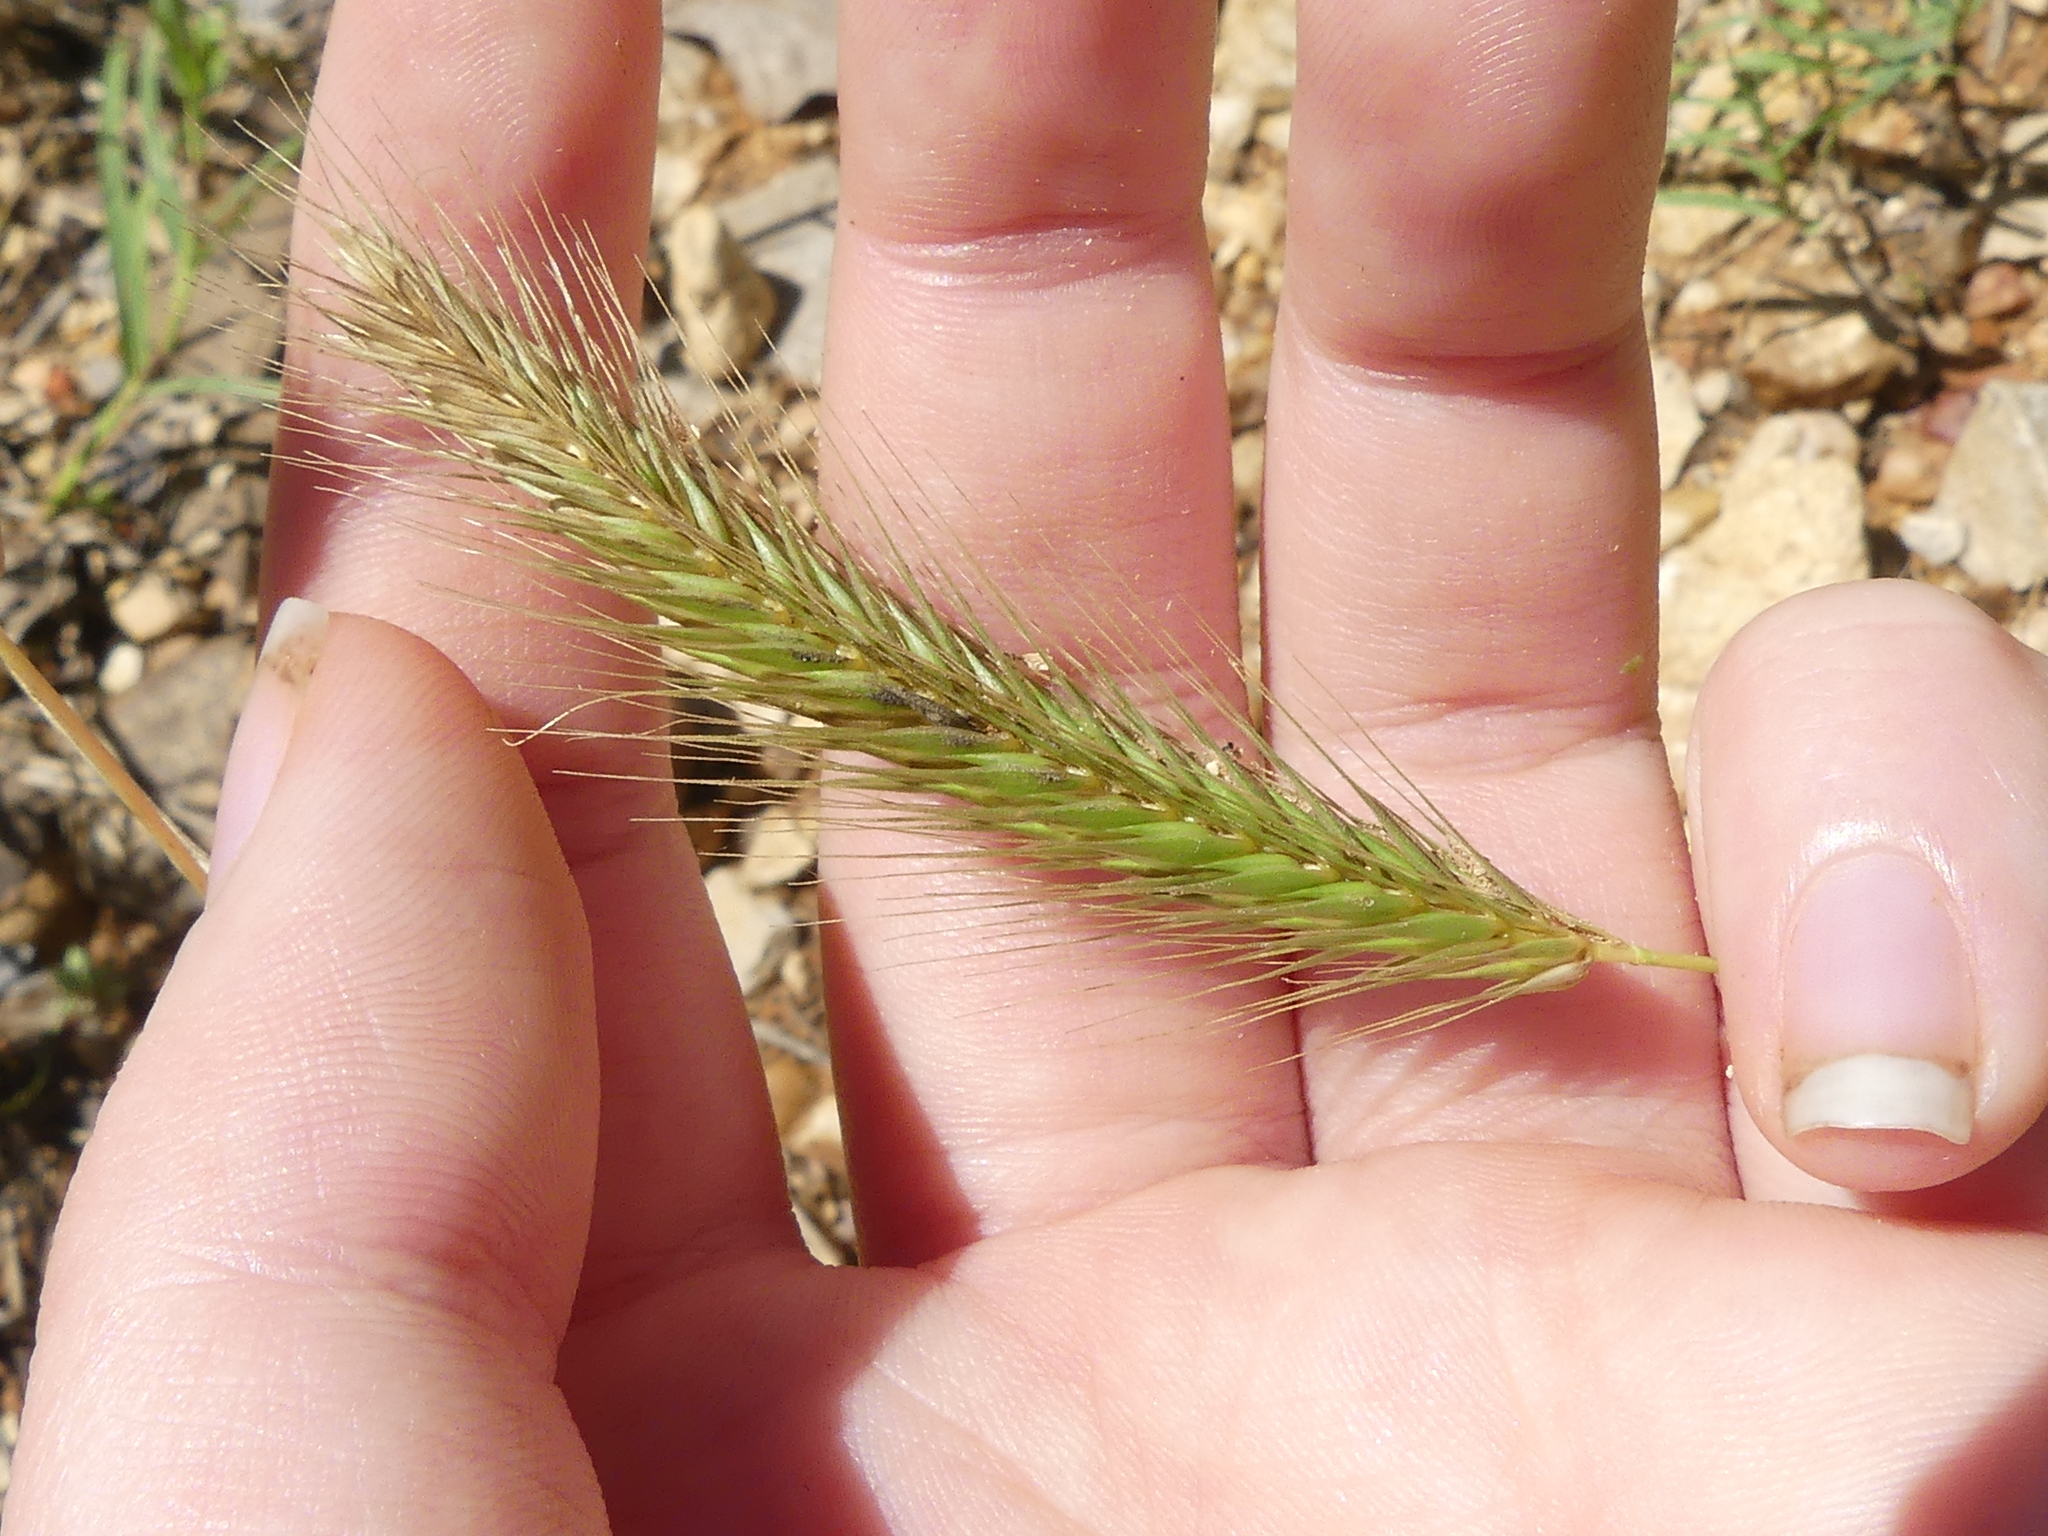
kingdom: Plantae
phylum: Tracheophyta
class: Liliopsida
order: Poales
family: Poaceae
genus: Hordeum
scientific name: Hordeum pusillum
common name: Little barley
